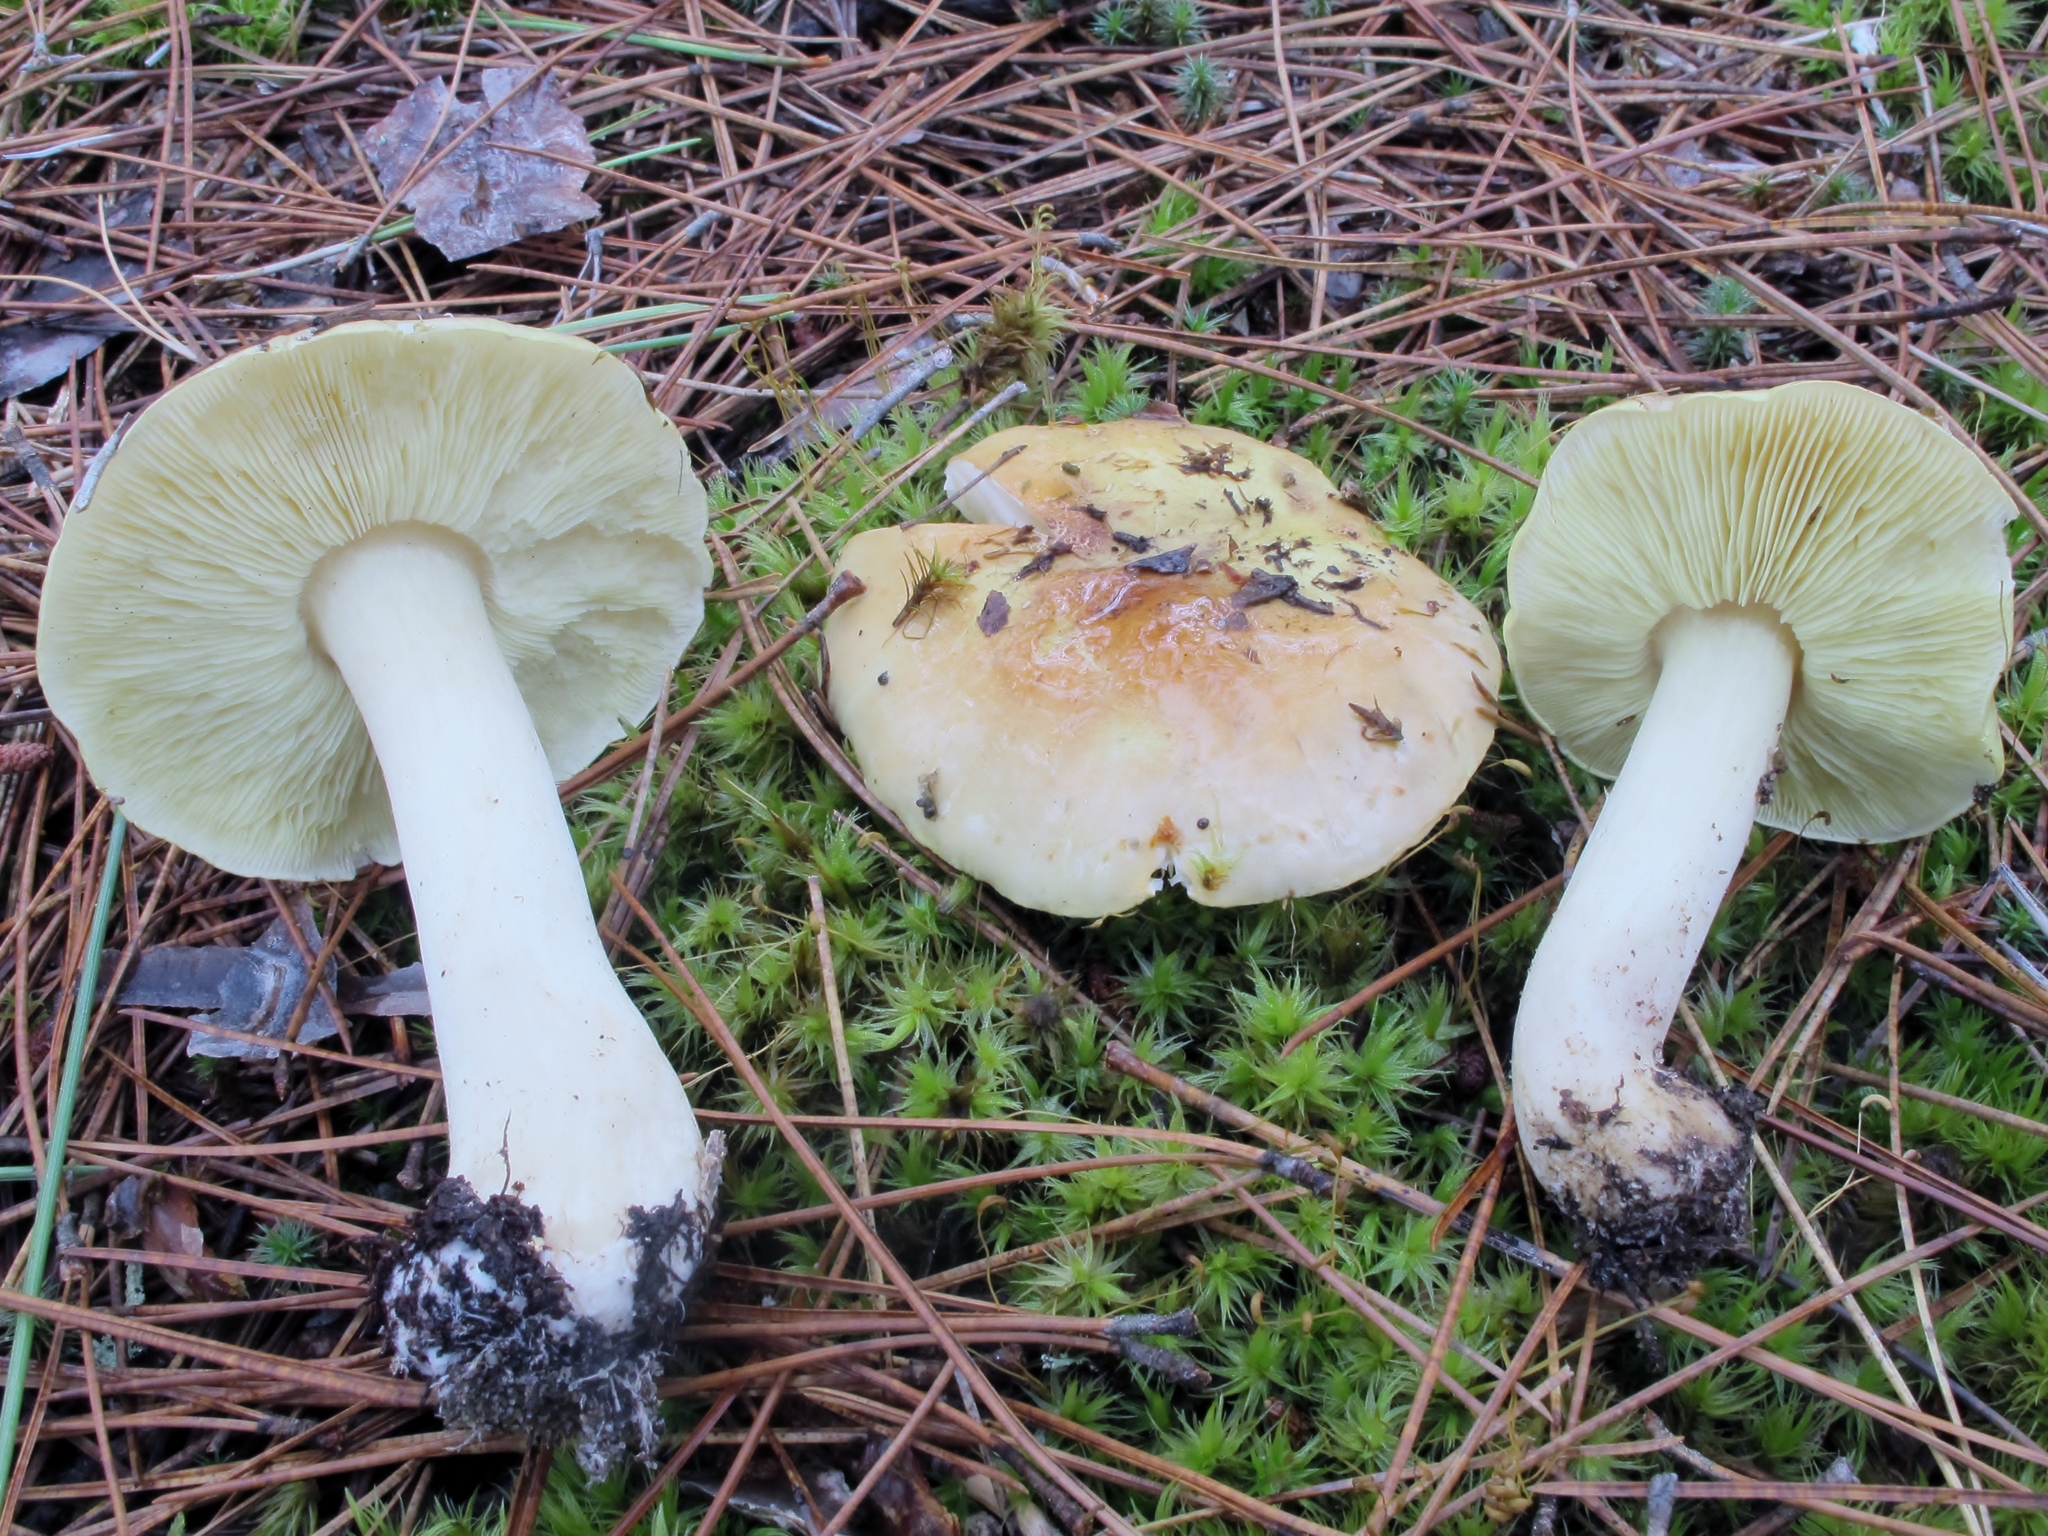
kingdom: Fungi
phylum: Basidiomycota
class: Agaricomycetes
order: Agaricales
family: Tricholomataceae
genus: Tricholoma
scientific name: Tricholoma intermedium
